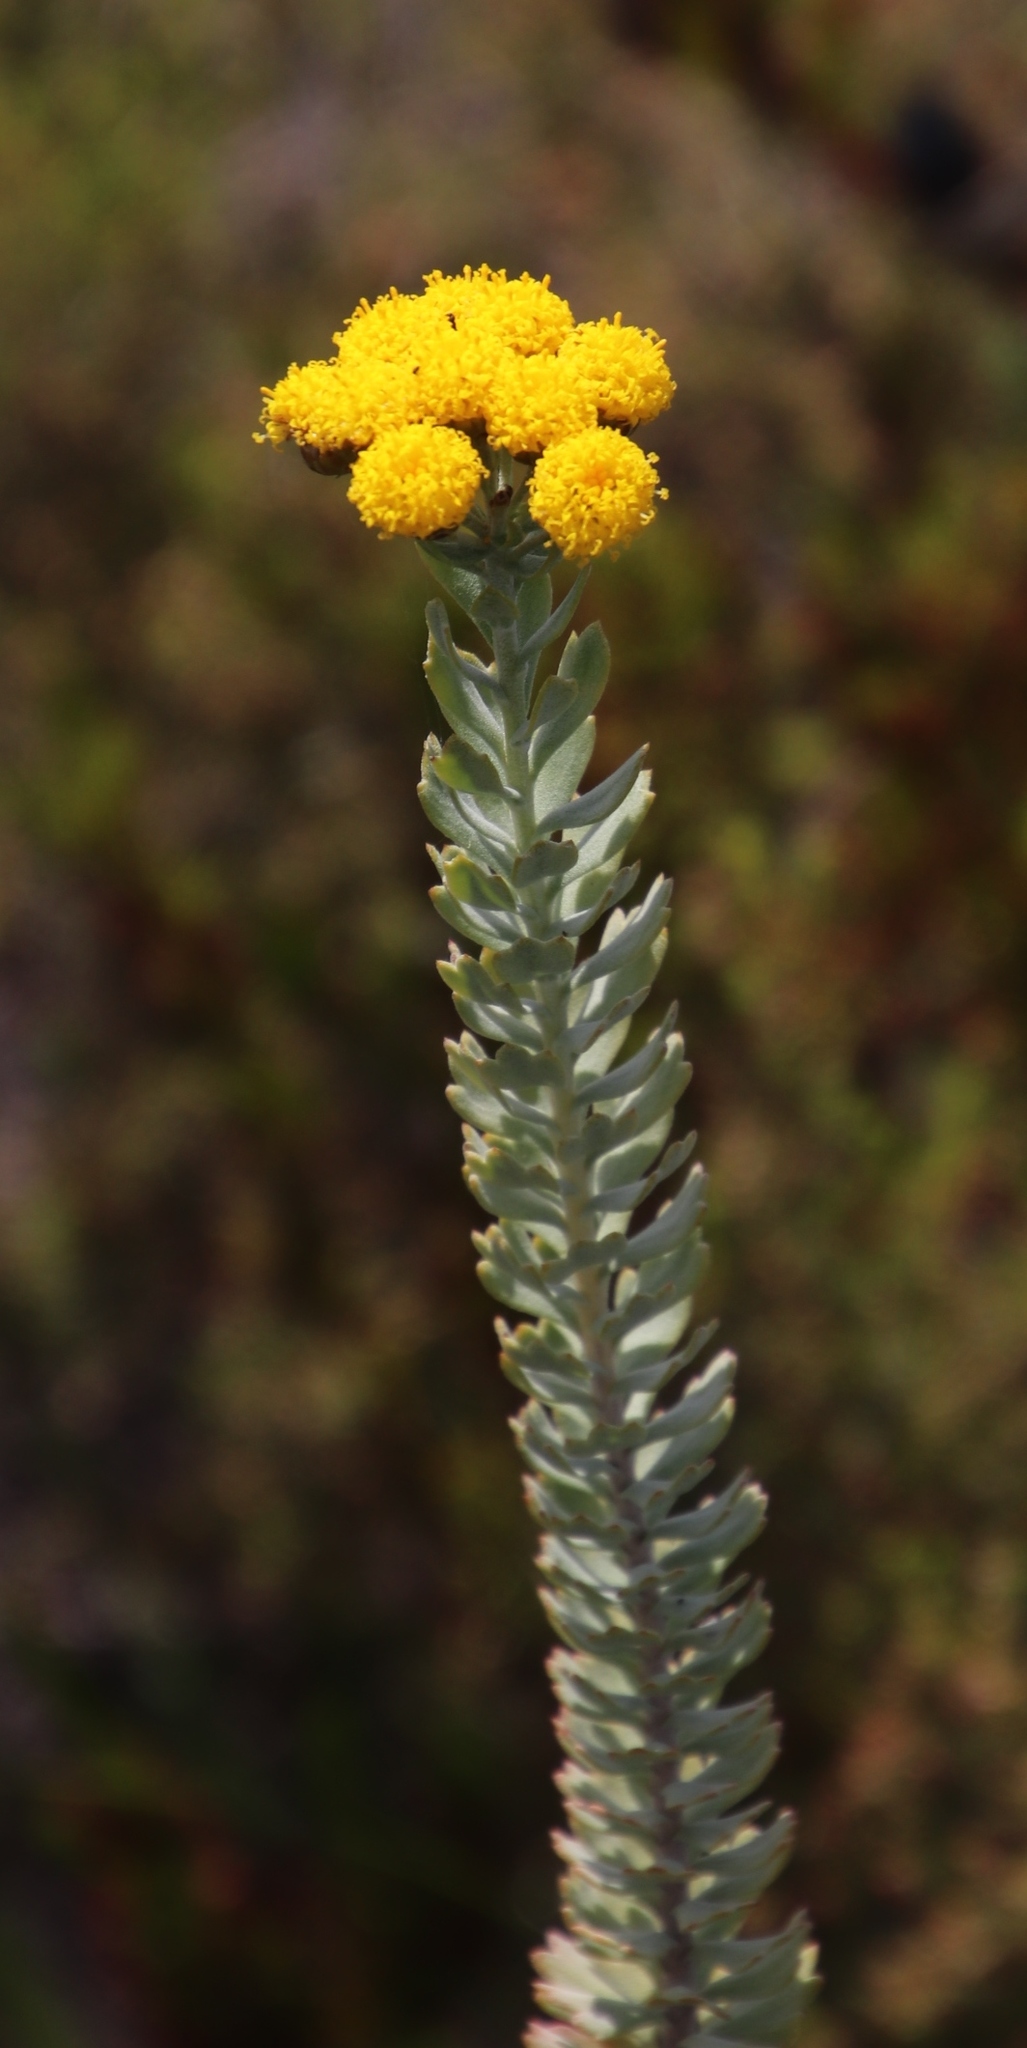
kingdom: Plantae
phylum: Tracheophyta
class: Magnoliopsida
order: Asterales
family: Asteraceae
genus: Athanasia
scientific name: Athanasia trifurcata
